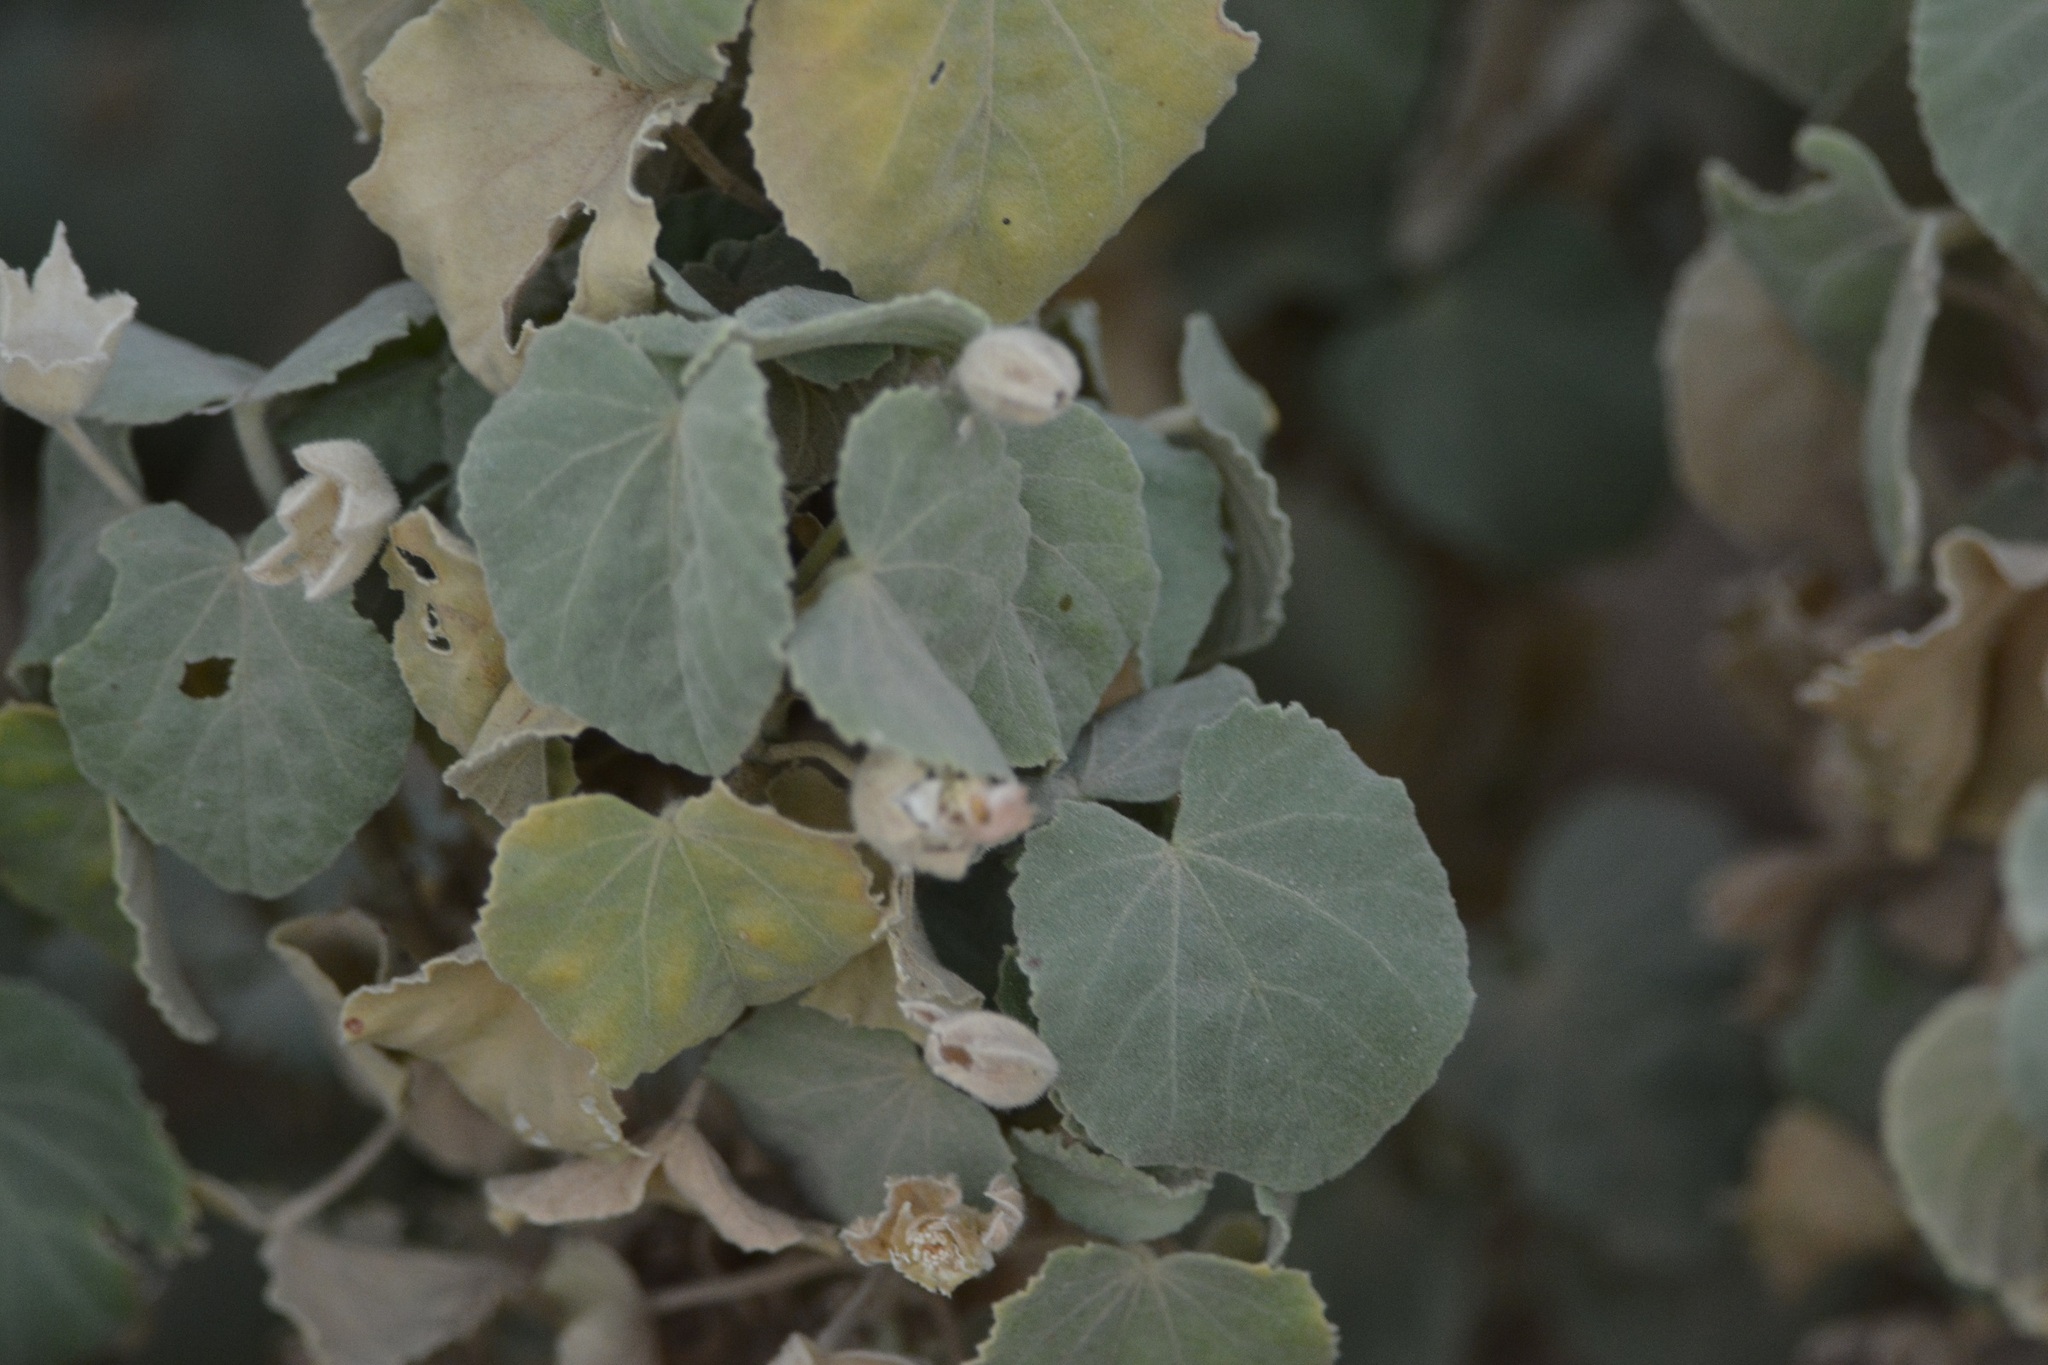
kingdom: Plantae
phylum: Tracheophyta
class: Magnoliopsida
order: Malvales
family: Malvaceae
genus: Abutilon
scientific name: Abutilon pannosum
